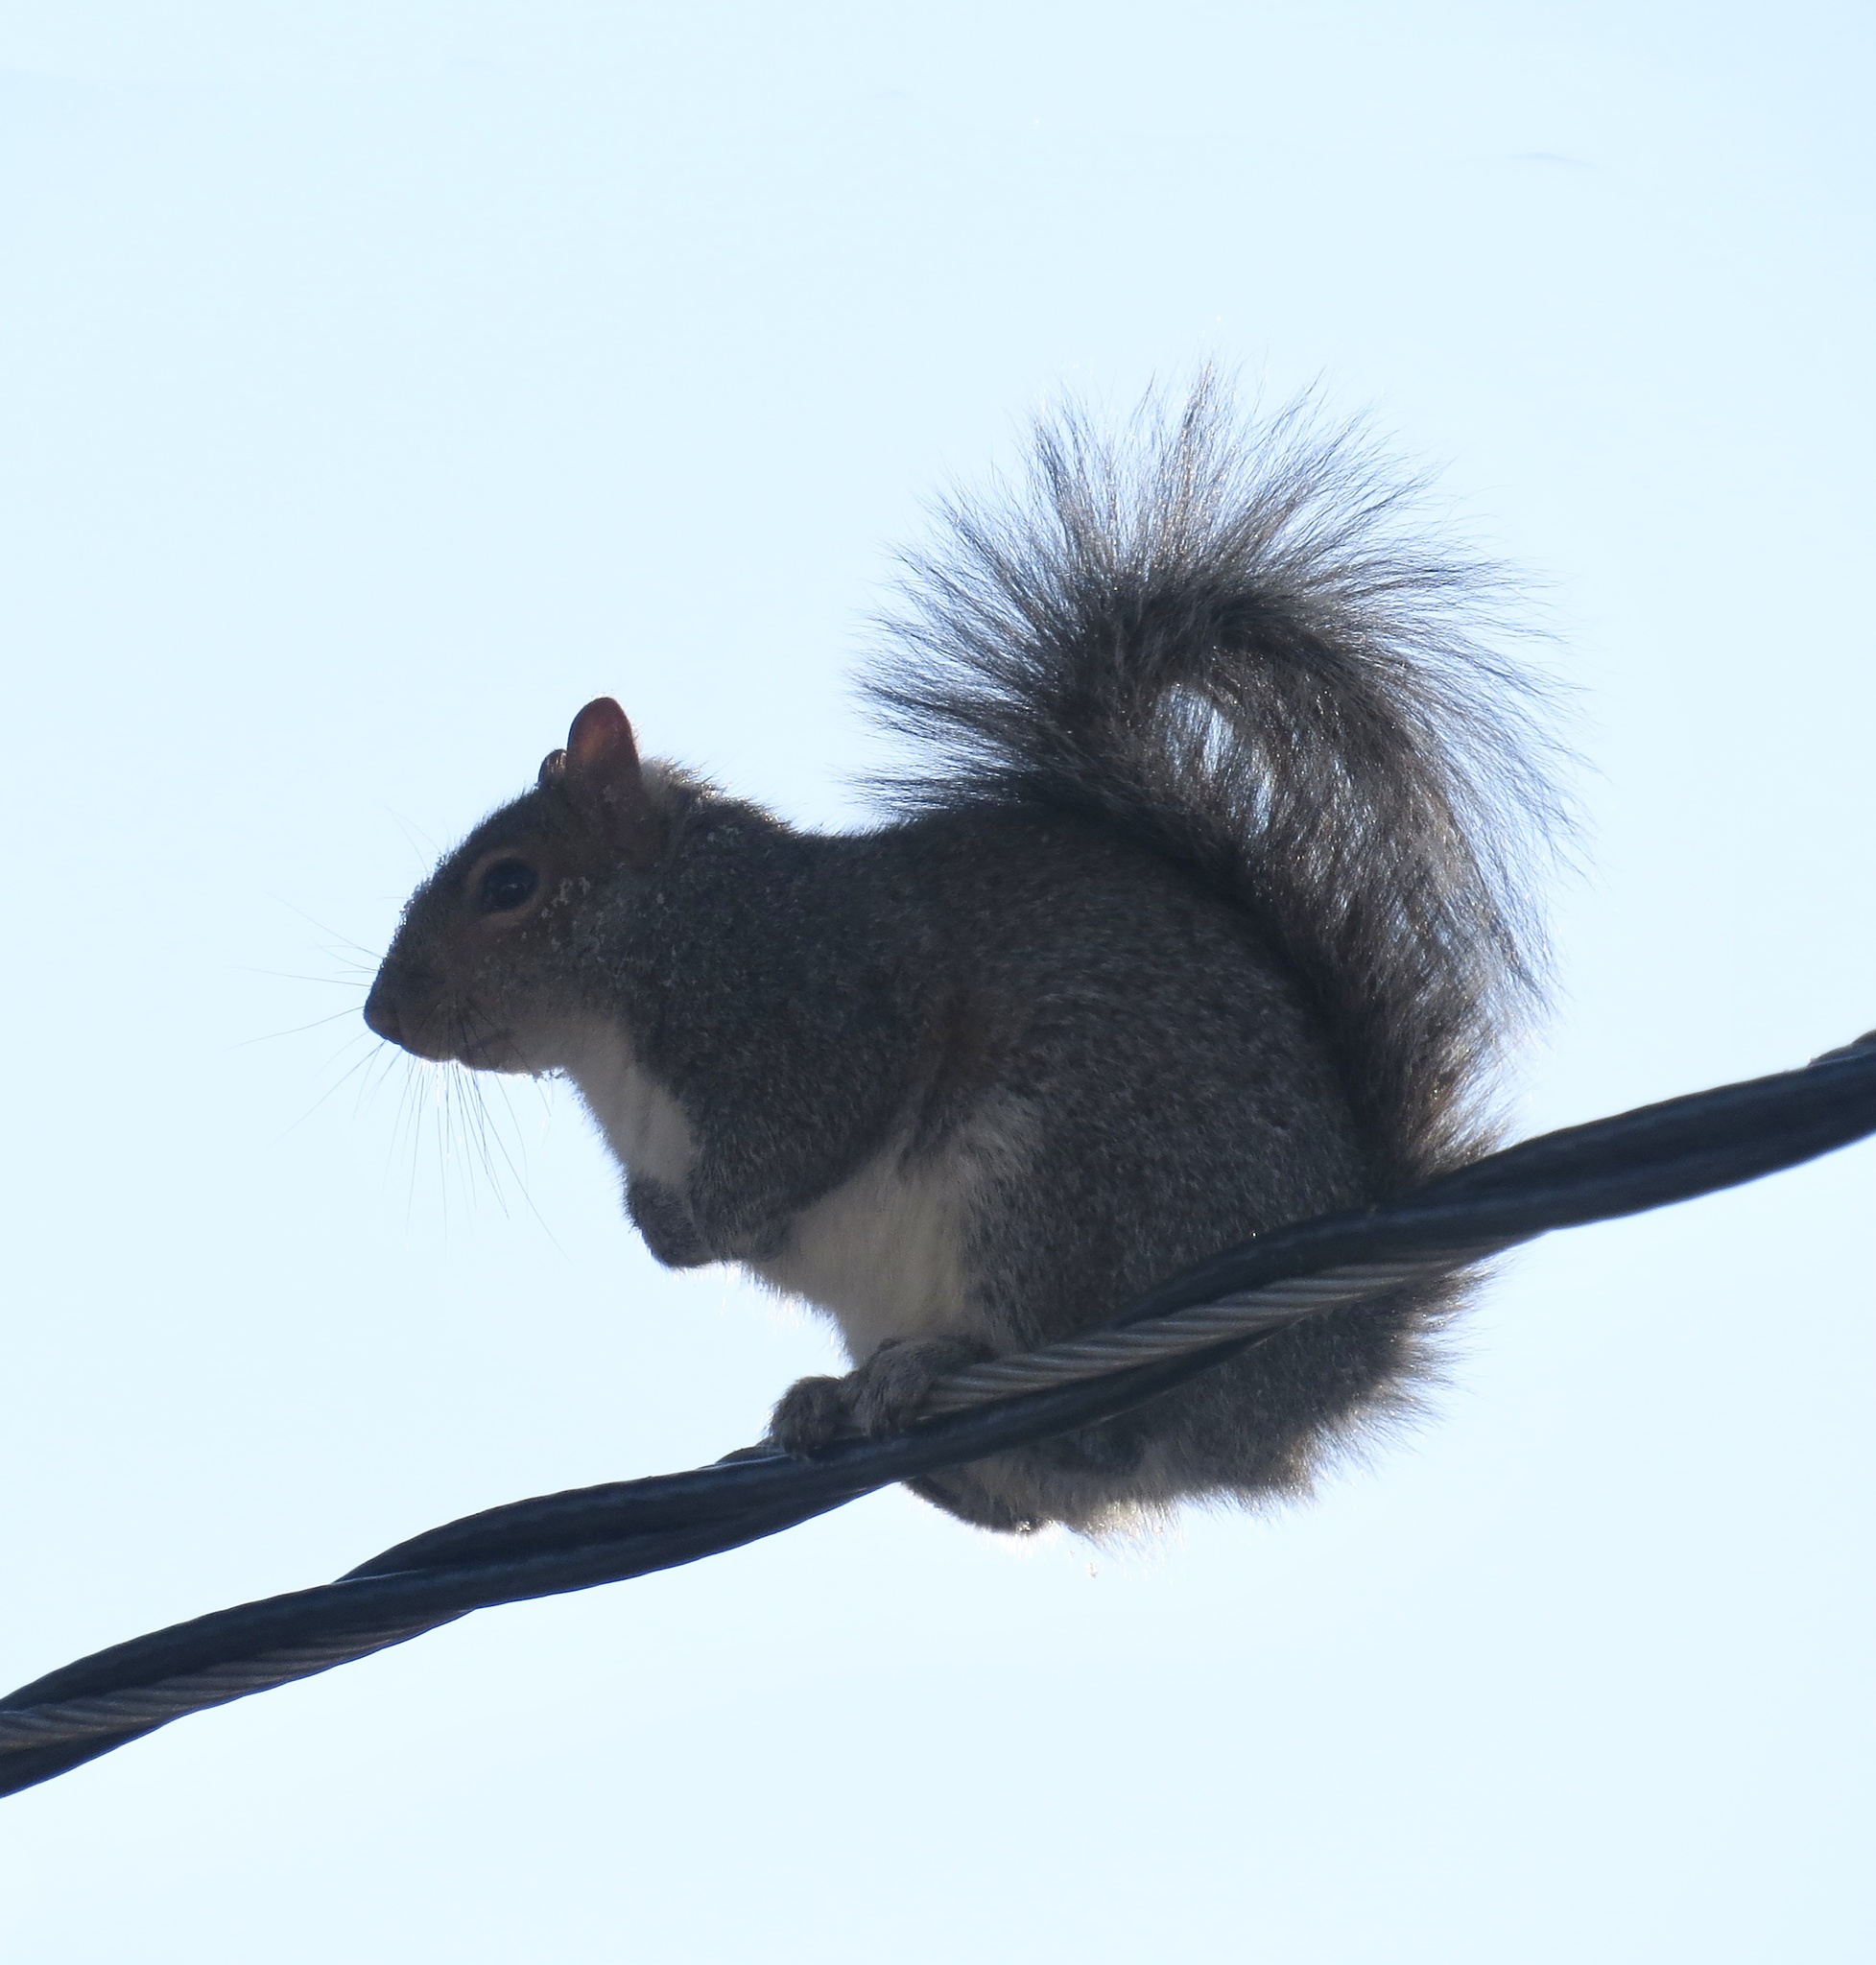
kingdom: Animalia
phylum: Chordata
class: Mammalia
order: Rodentia
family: Sciuridae
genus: Sciurus
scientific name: Sciurus carolinensis
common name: Eastern gray squirrel
